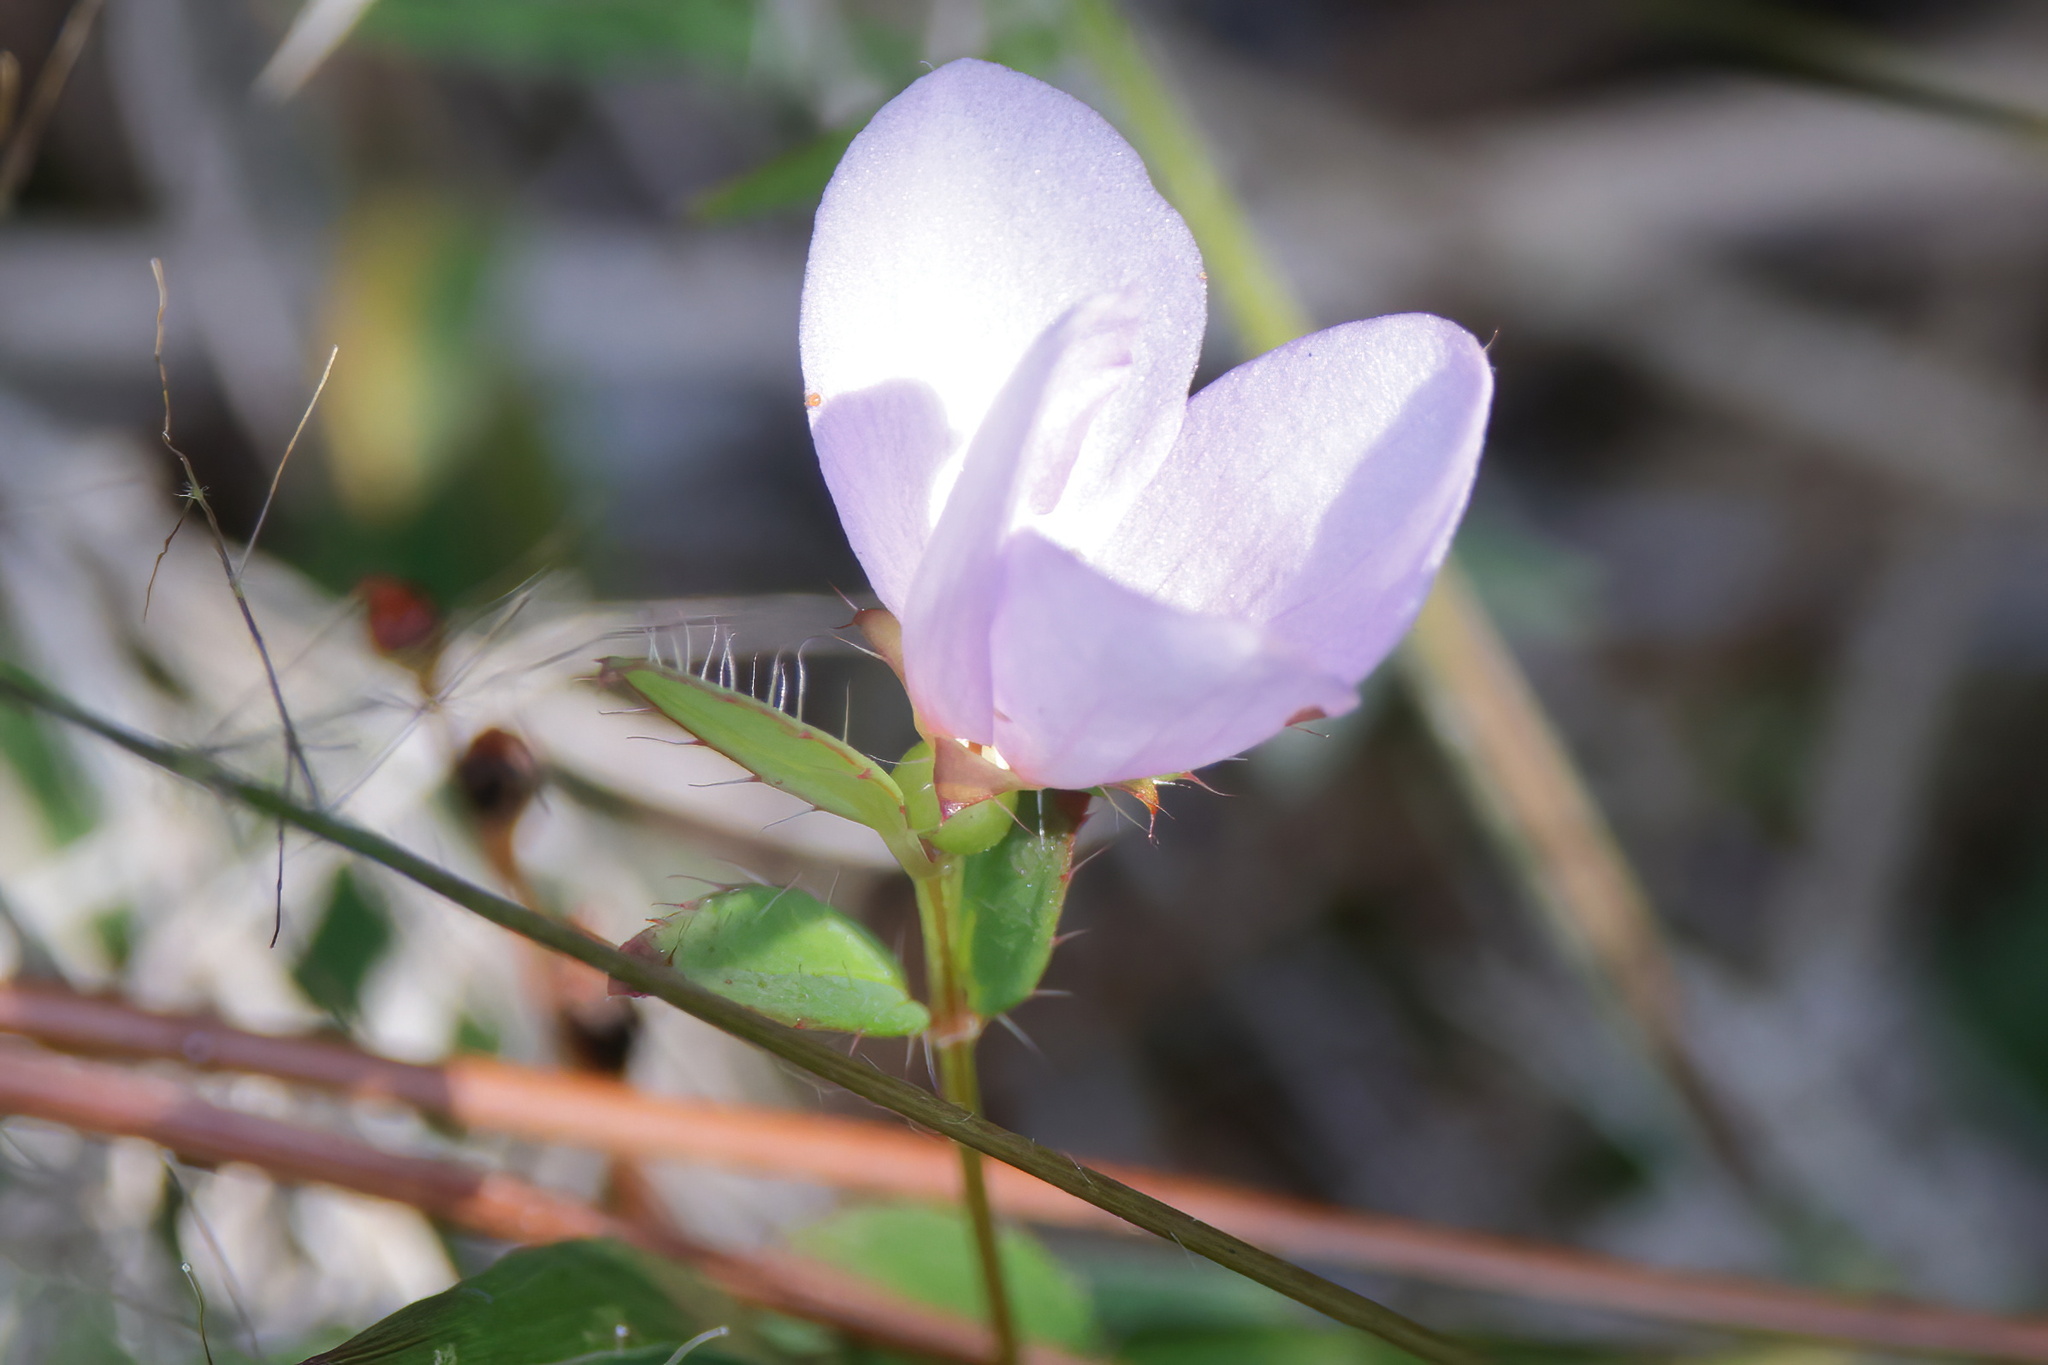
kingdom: Plantae
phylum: Tracheophyta
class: Magnoliopsida
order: Myrtales
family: Melastomataceae
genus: Rhexia
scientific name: Rhexia petiolata
